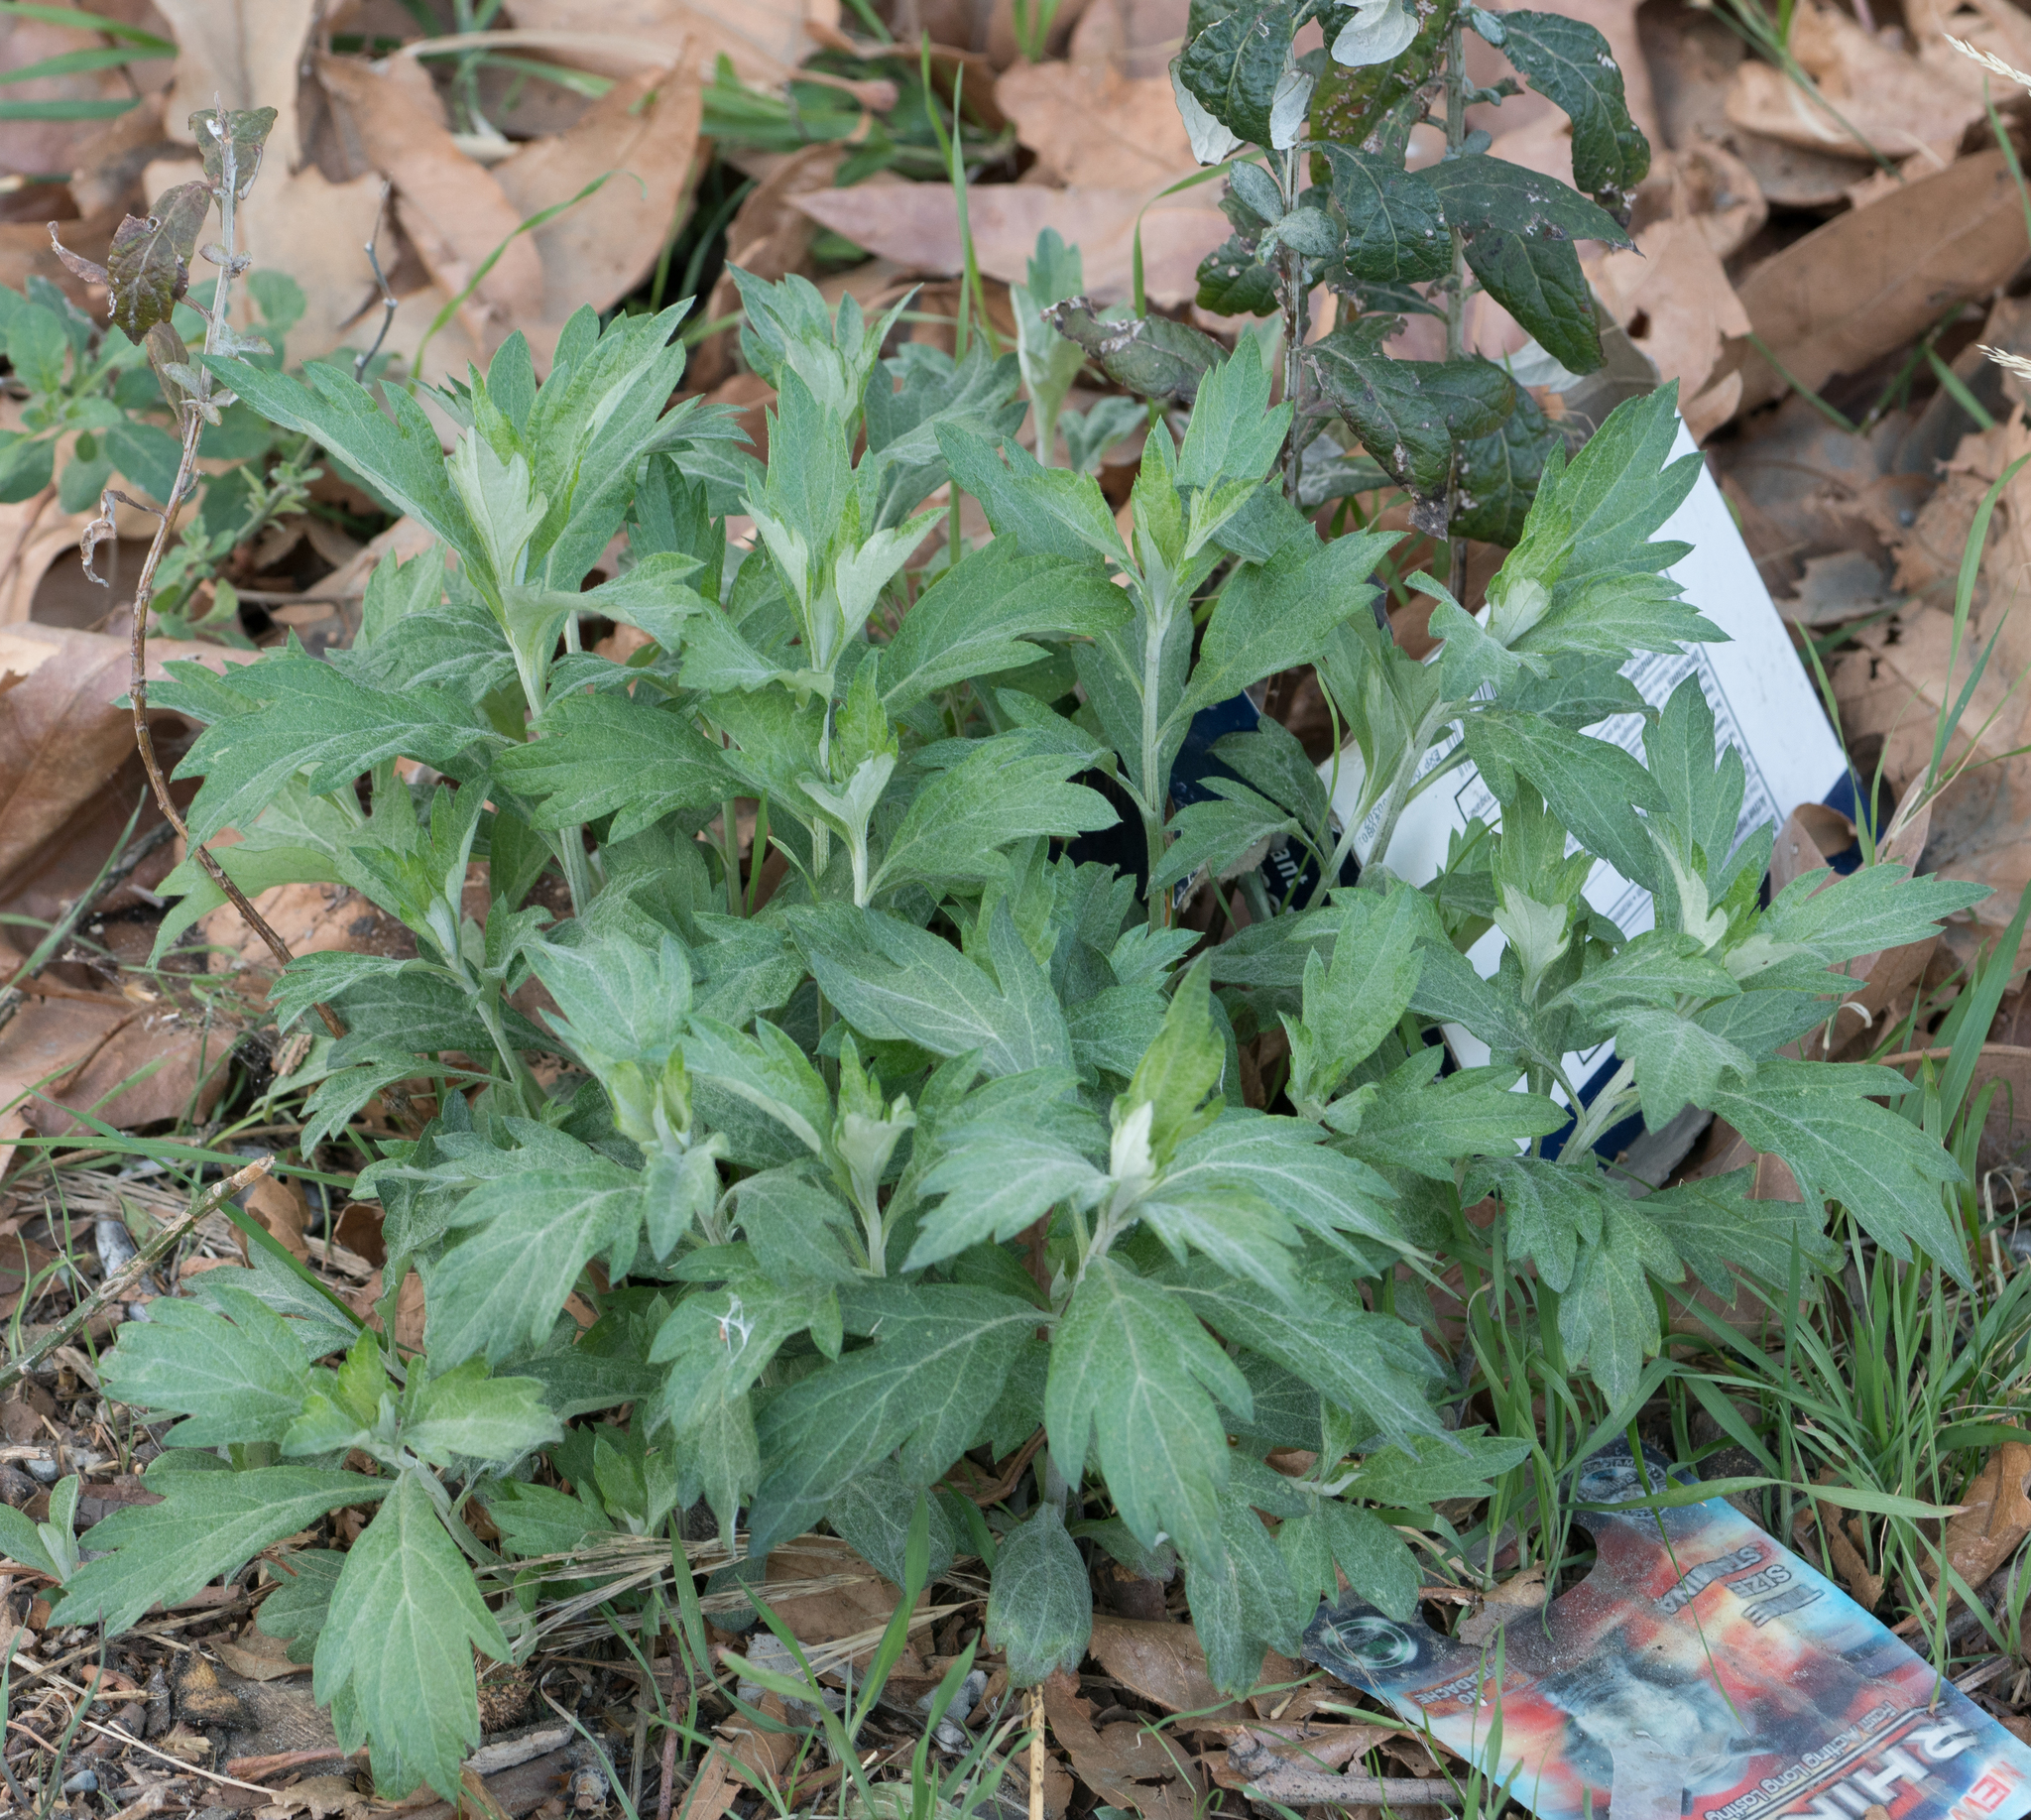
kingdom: Plantae
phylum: Tracheophyta
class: Magnoliopsida
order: Asterales
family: Asteraceae
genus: Artemisia
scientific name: Artemisia douglasiana
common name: Northwest mugwort
